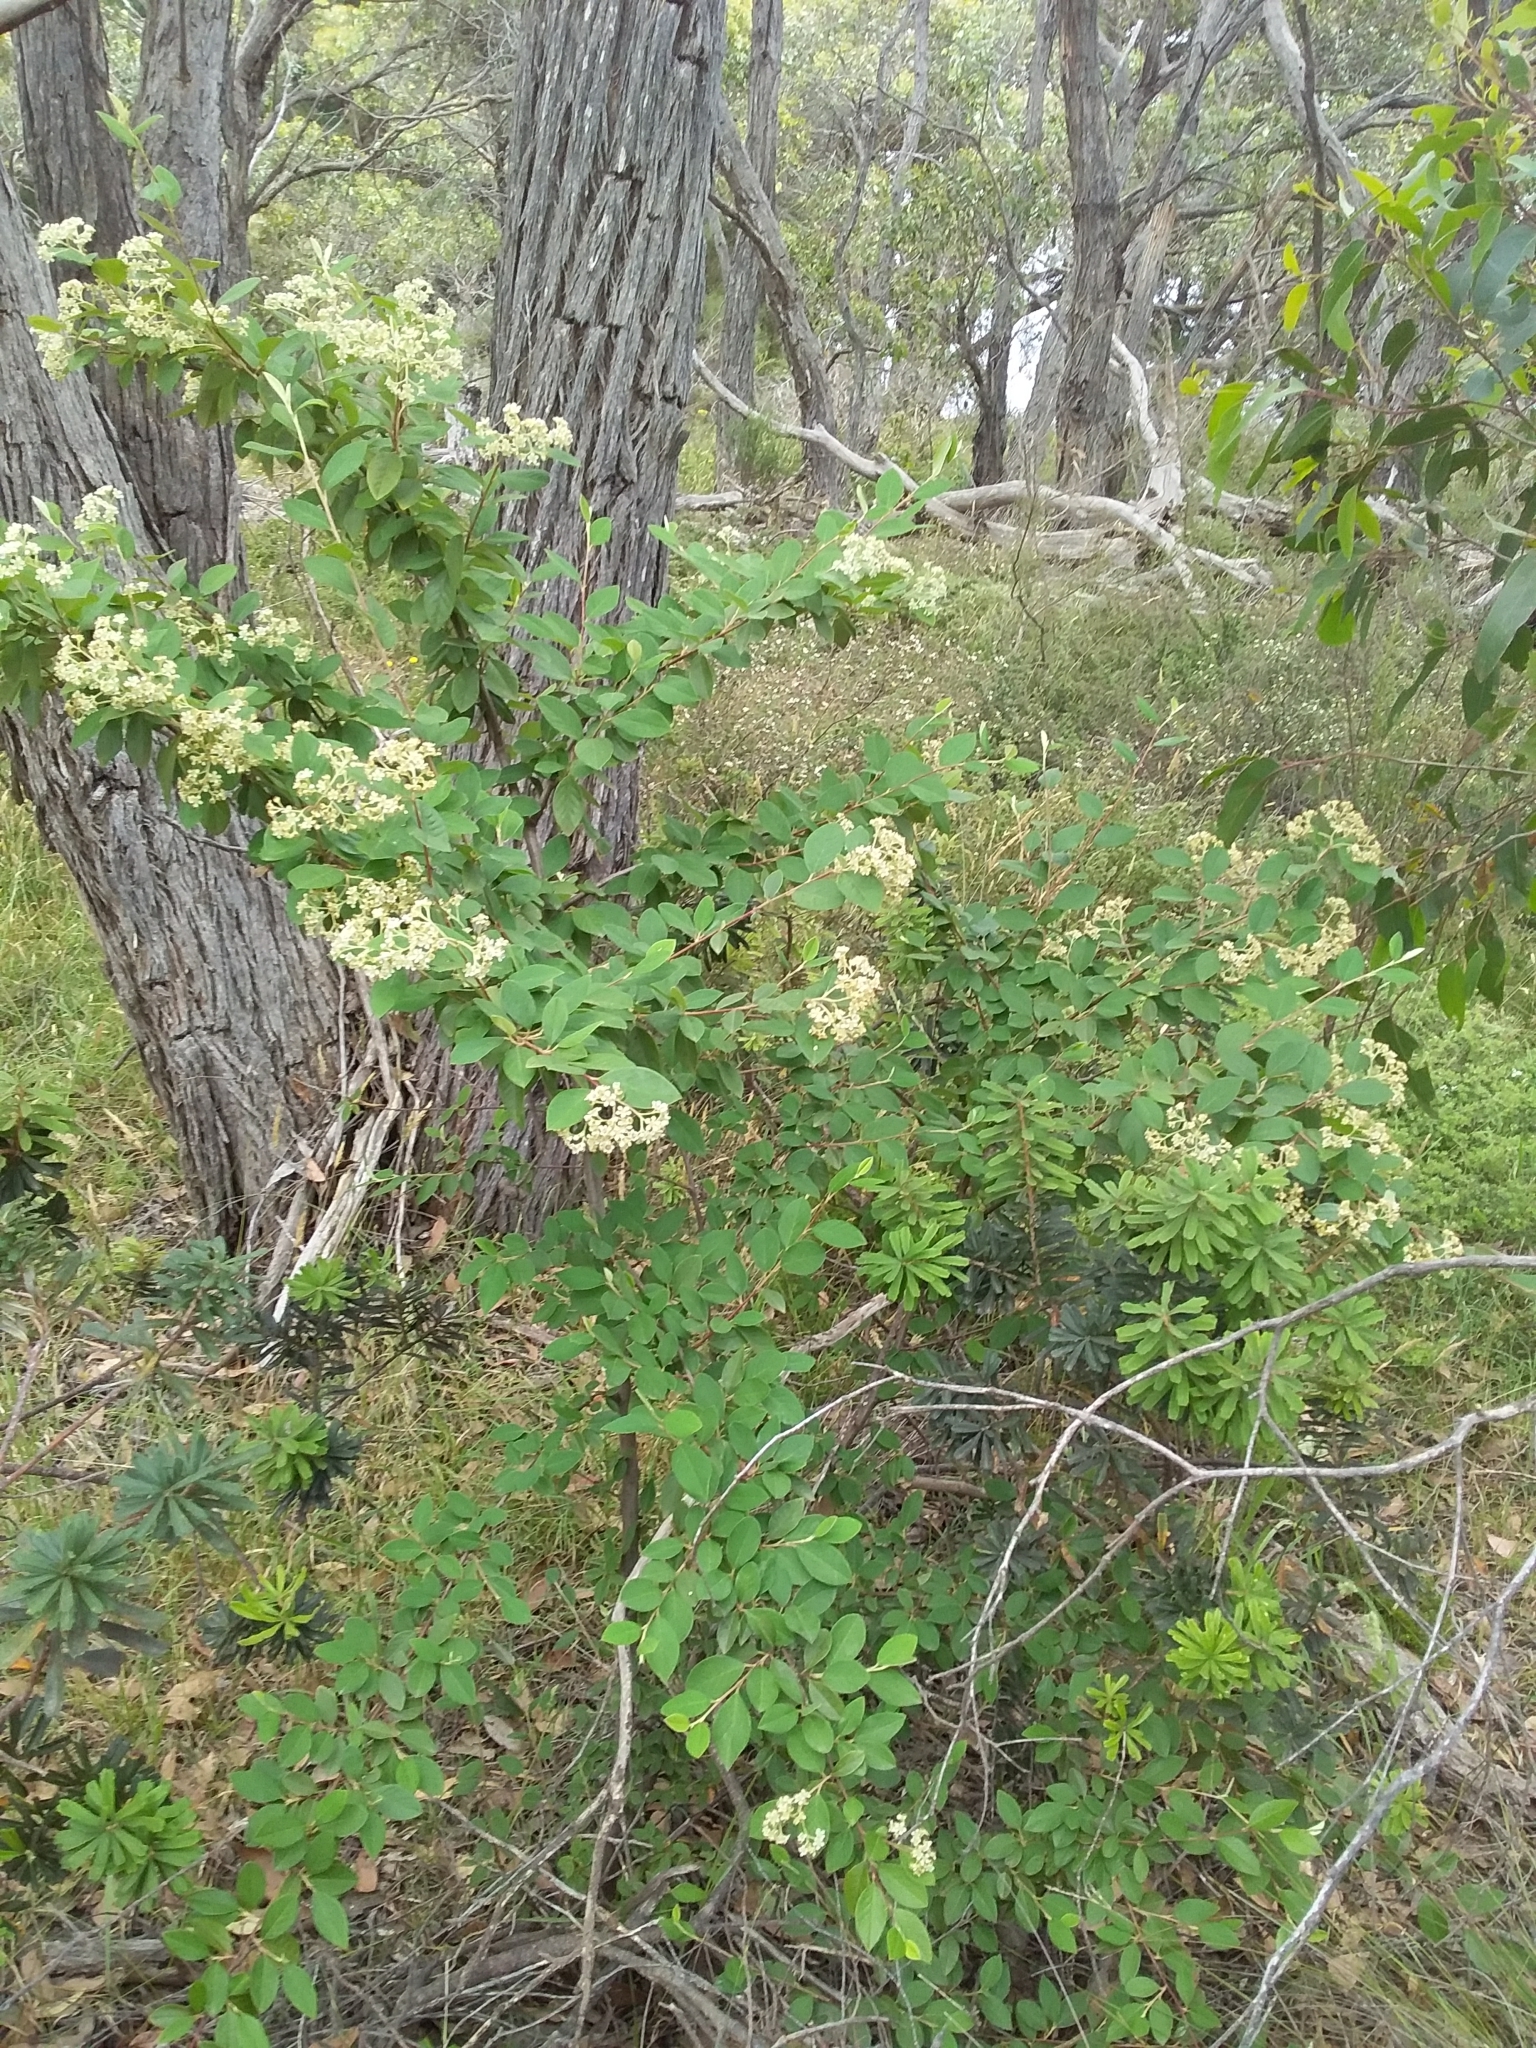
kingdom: Plantae
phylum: Tracheophyta
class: Magnoliopsida
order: Rosales
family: Rosaceae
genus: Cotoneaster
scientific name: Cotoneaster glaucophyllus
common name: Glaucous cotoneaster
